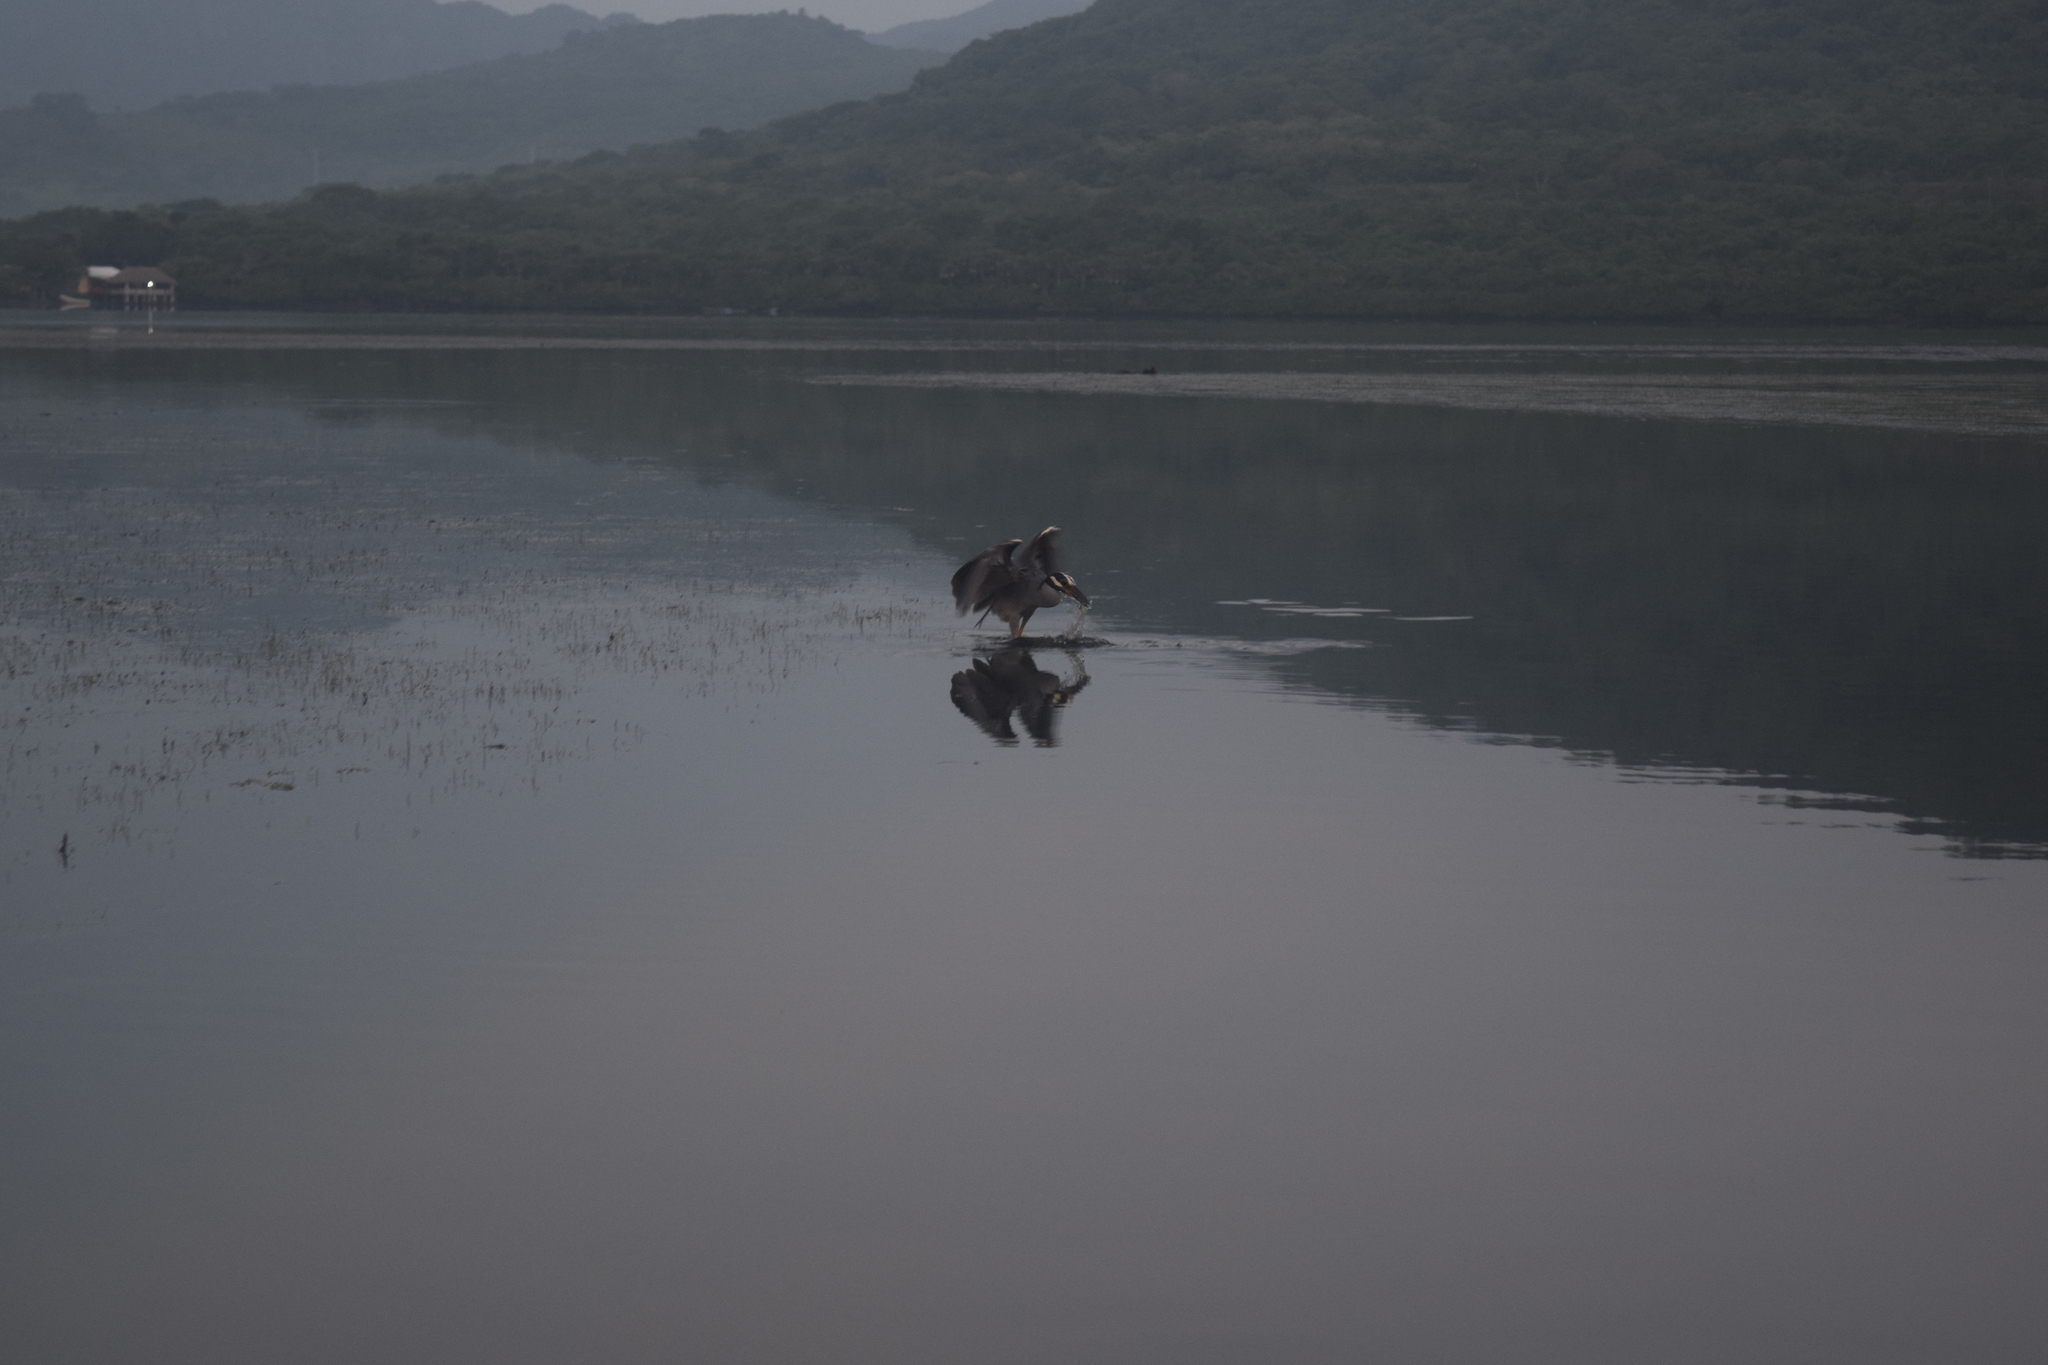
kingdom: Animalia
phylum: Chordata
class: Aves
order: Pelecaniformes
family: Ardeidae
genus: Nyctanassa
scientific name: Nyctanassa violacea
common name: Yellow-crowned night heron
